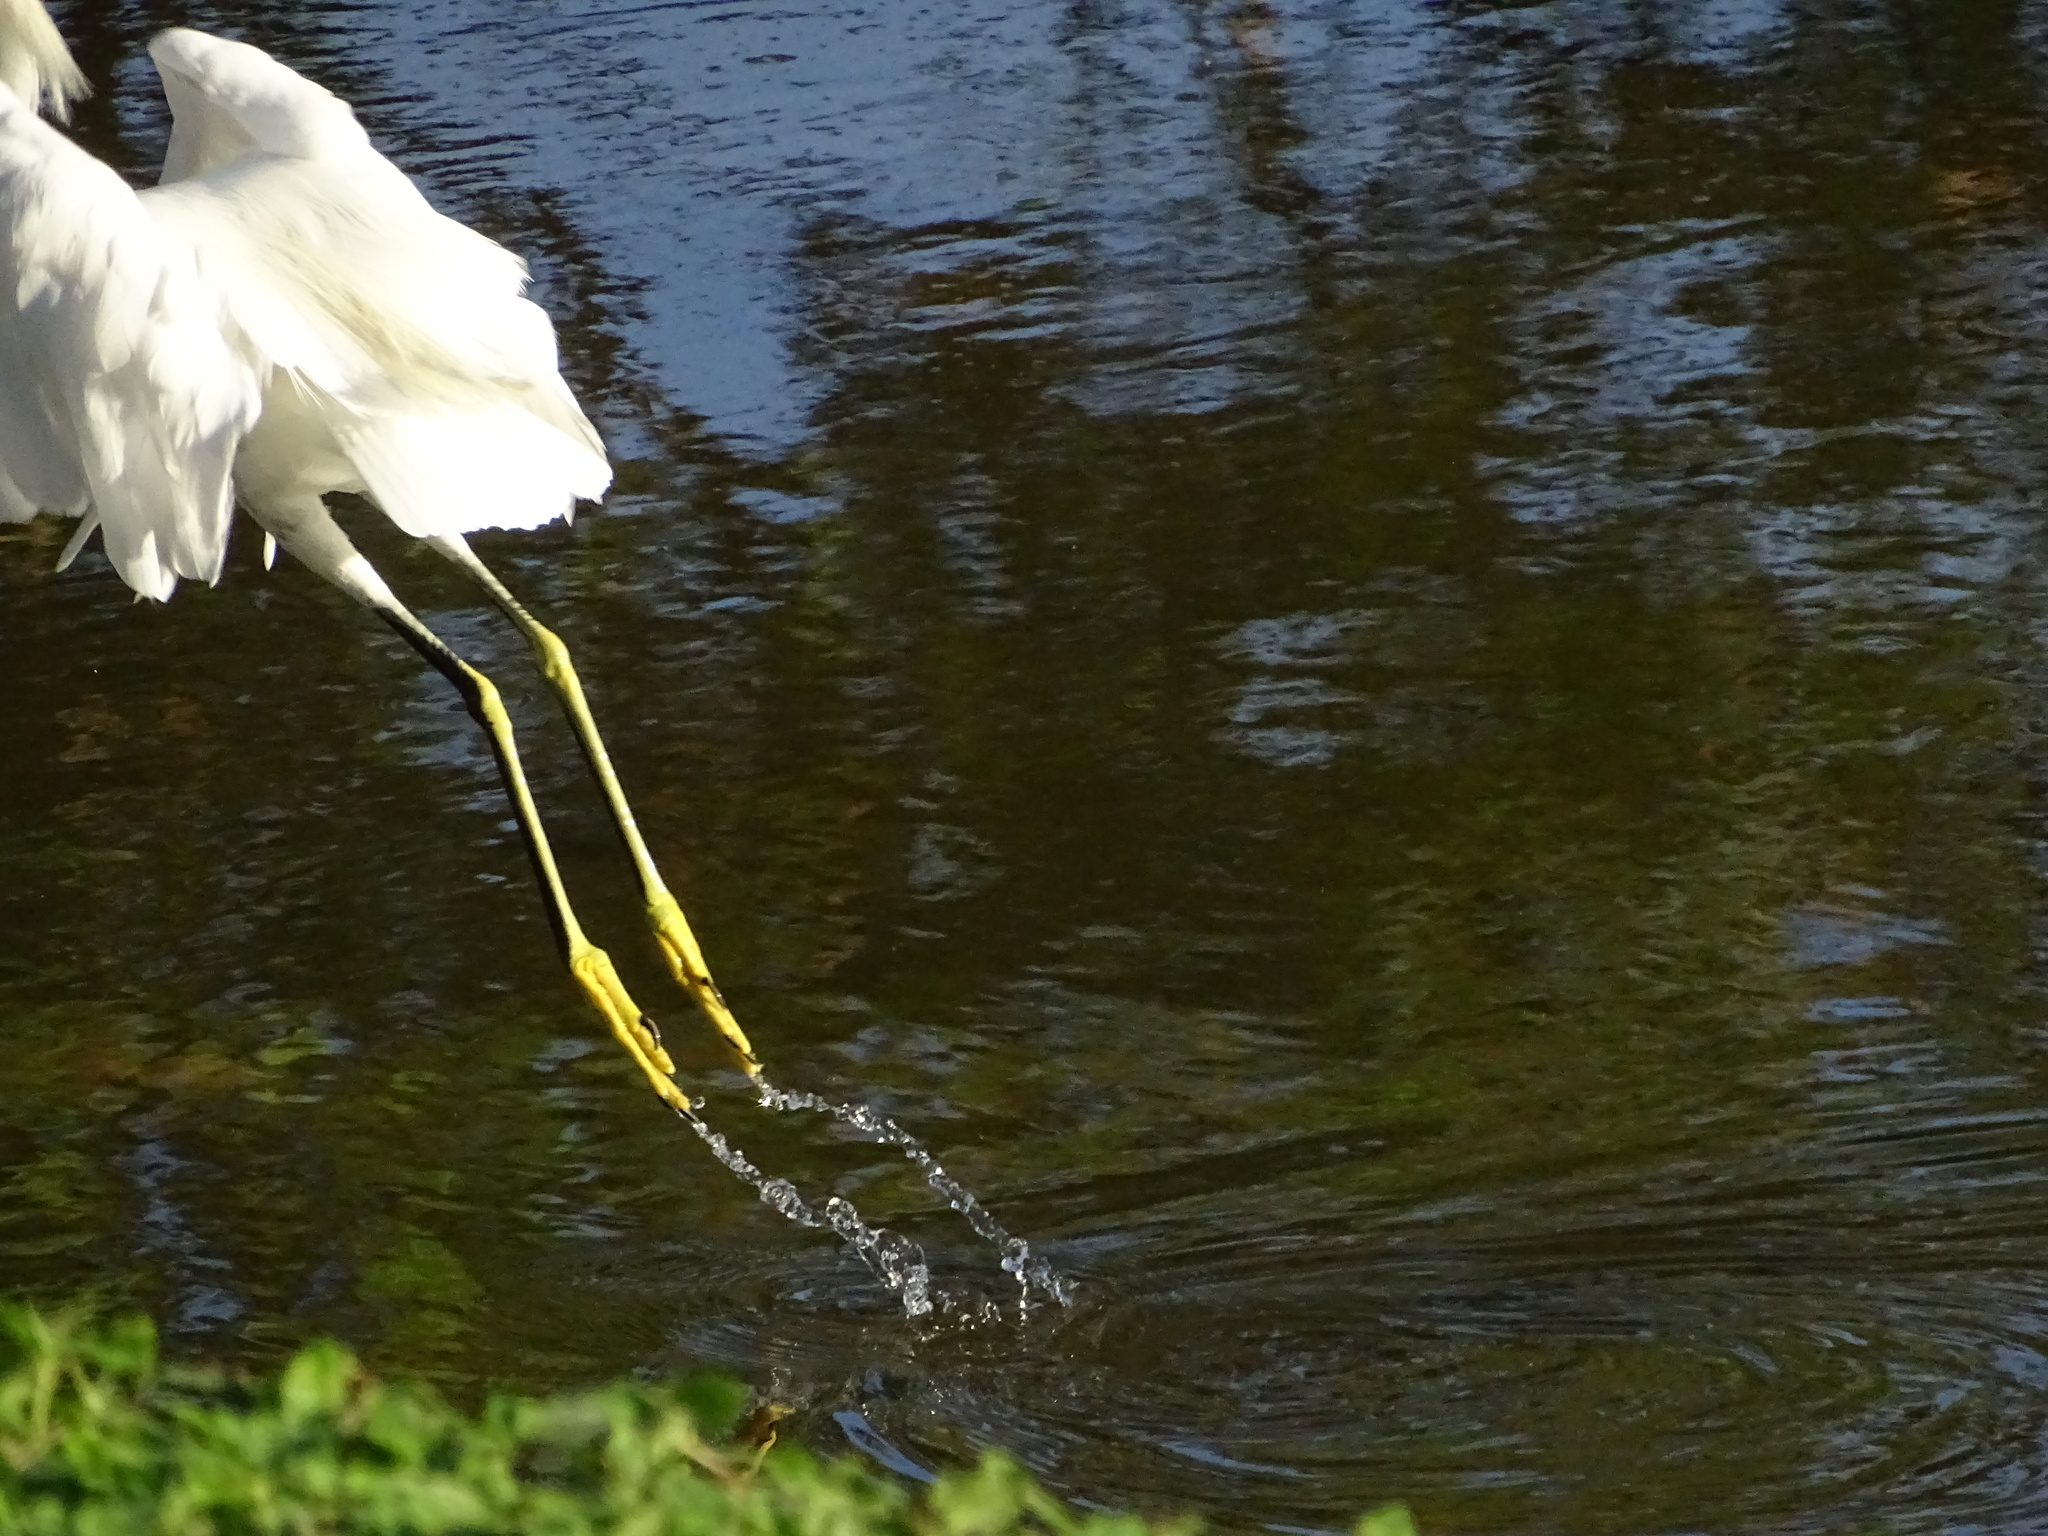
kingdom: Animalia
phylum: Chordata
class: Aves
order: Pelecaniformes
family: Ardeidae
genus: Egretta
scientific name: Egretta thula
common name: Snowy egret
